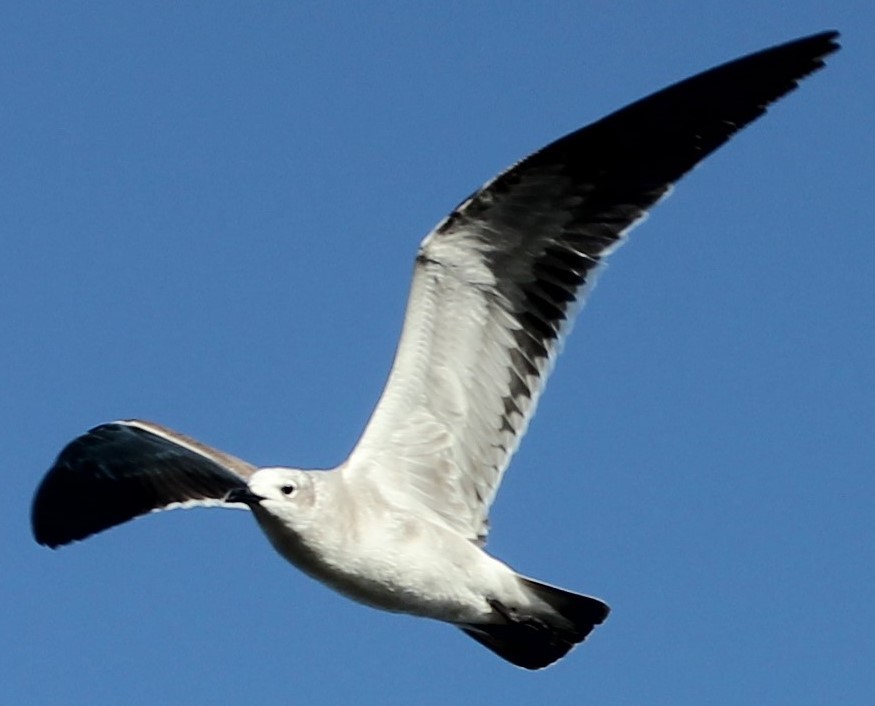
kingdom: Animalia
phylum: Chordata
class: Aves
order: Charadriiformes
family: Laridae
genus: Leucophaeus
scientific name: Leucophaeus atricilla
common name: Laughing gull
